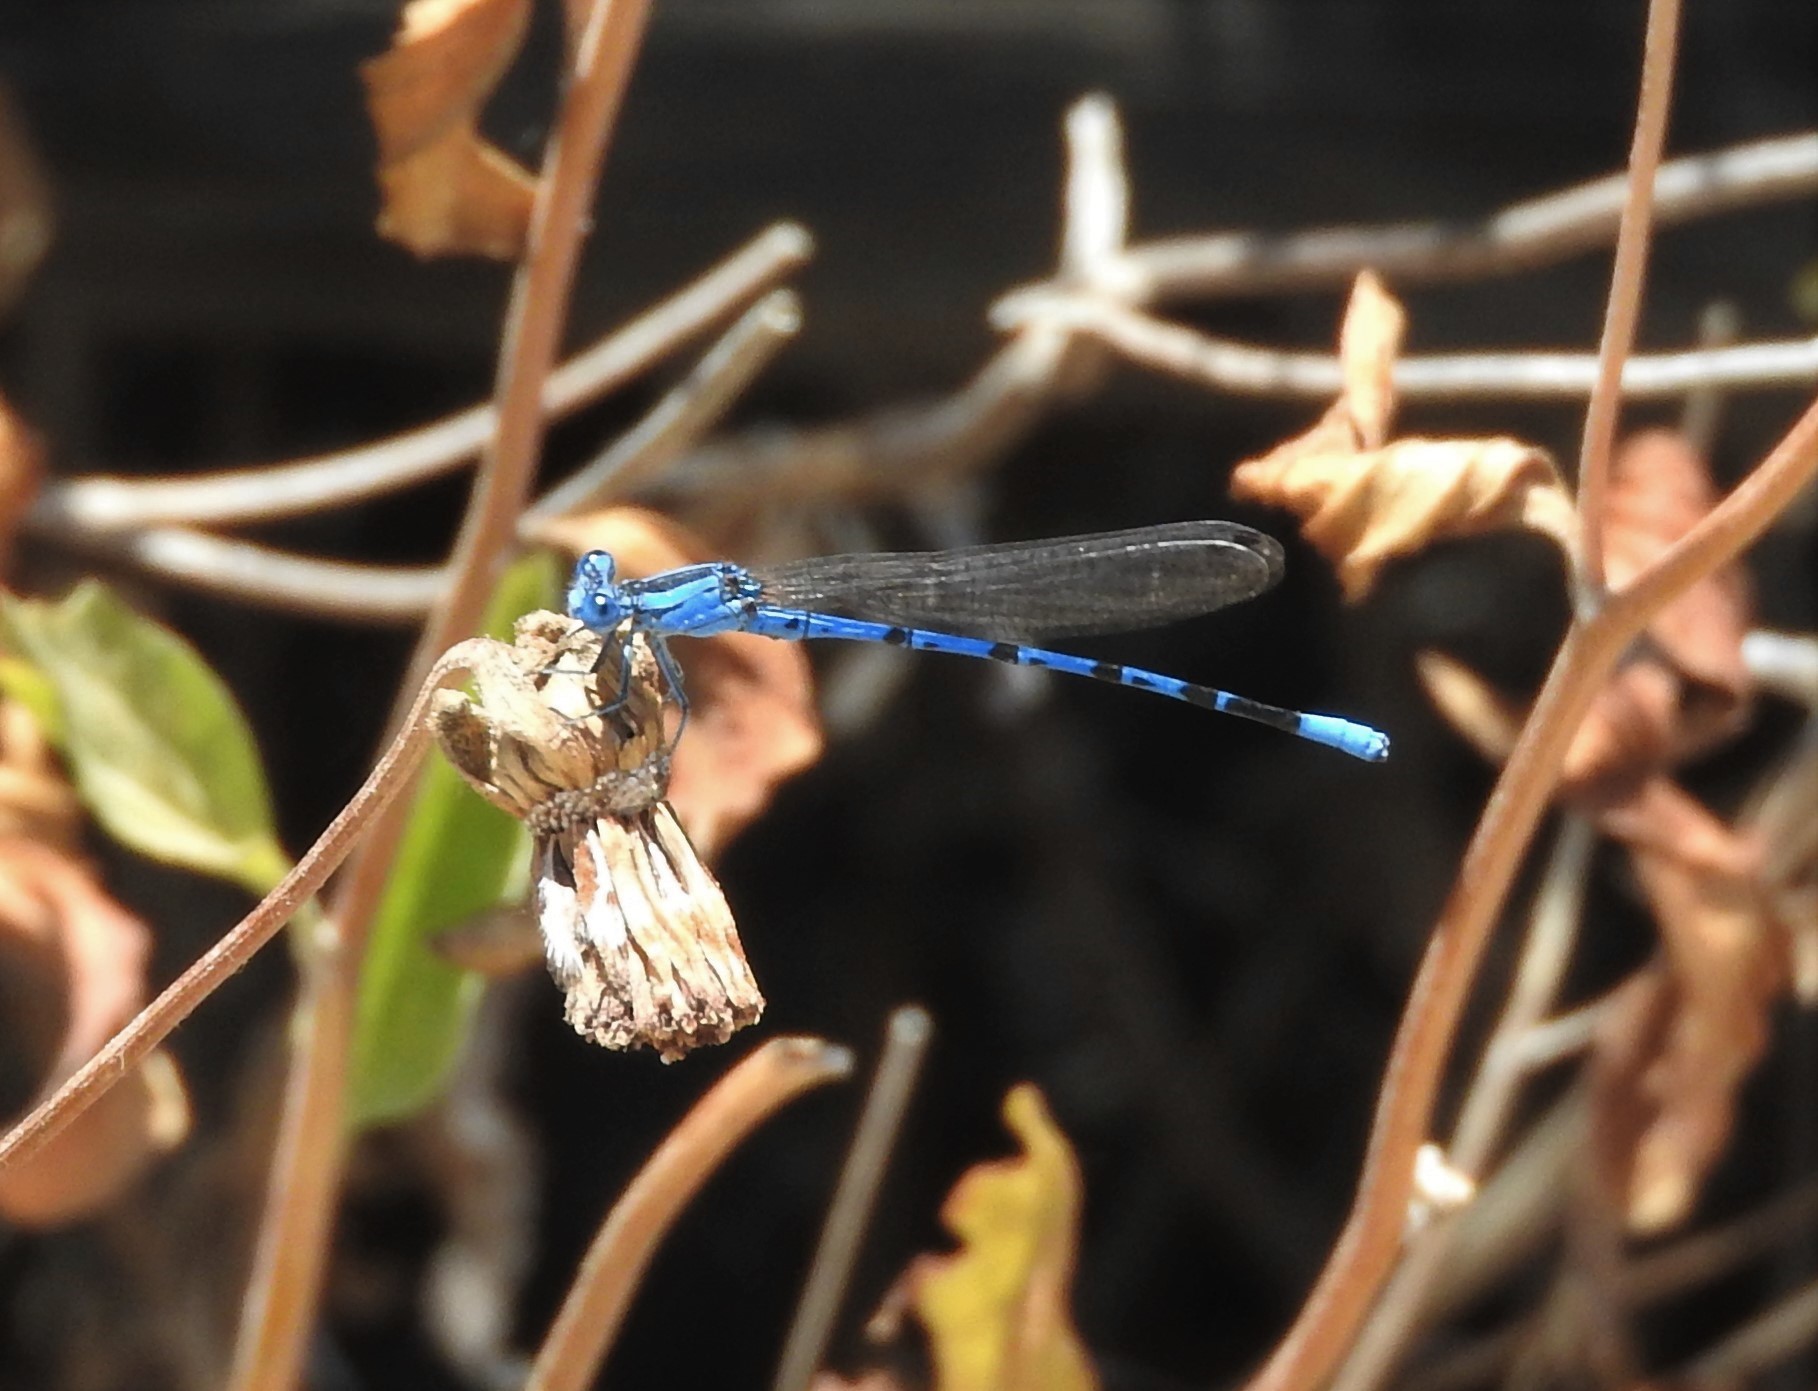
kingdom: Animalia
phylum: Arthropoda
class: Insecta
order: Odonata
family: Coenagrionidae
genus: Argia
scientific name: Argia vivida
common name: Vivid dancer
